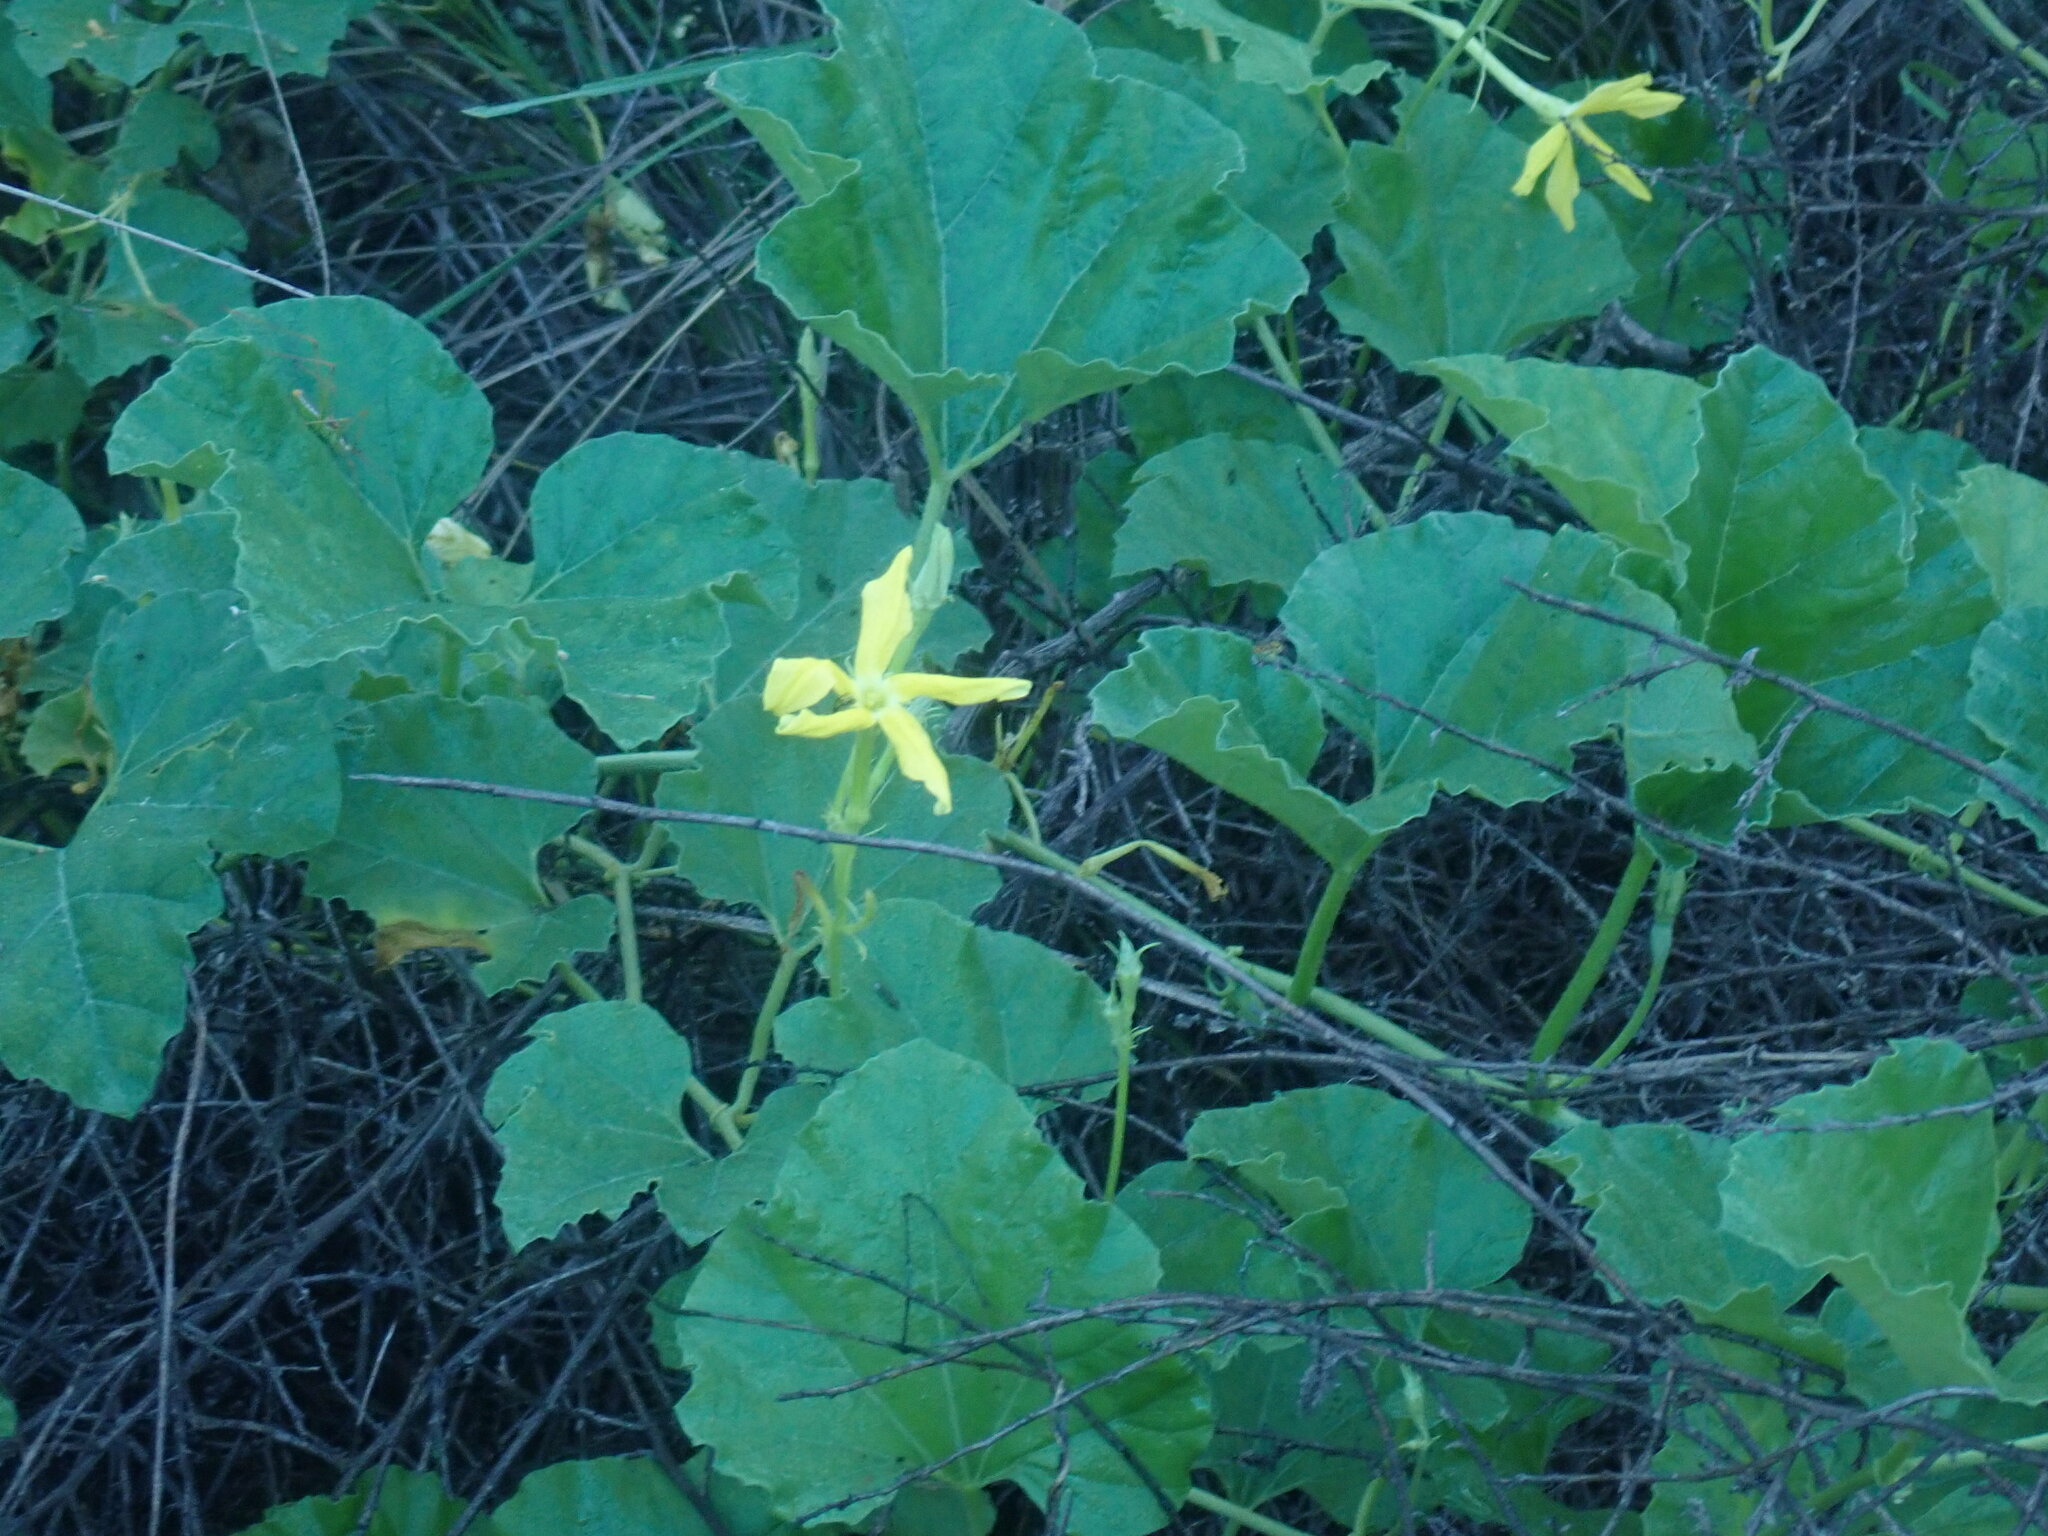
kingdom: Plantae
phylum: Tracheophyta
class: Magnoliopsida
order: Cucurbitales
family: Cucurbitaceae
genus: Apodanthera
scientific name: Apodanthera undulata
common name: Melon-loco
